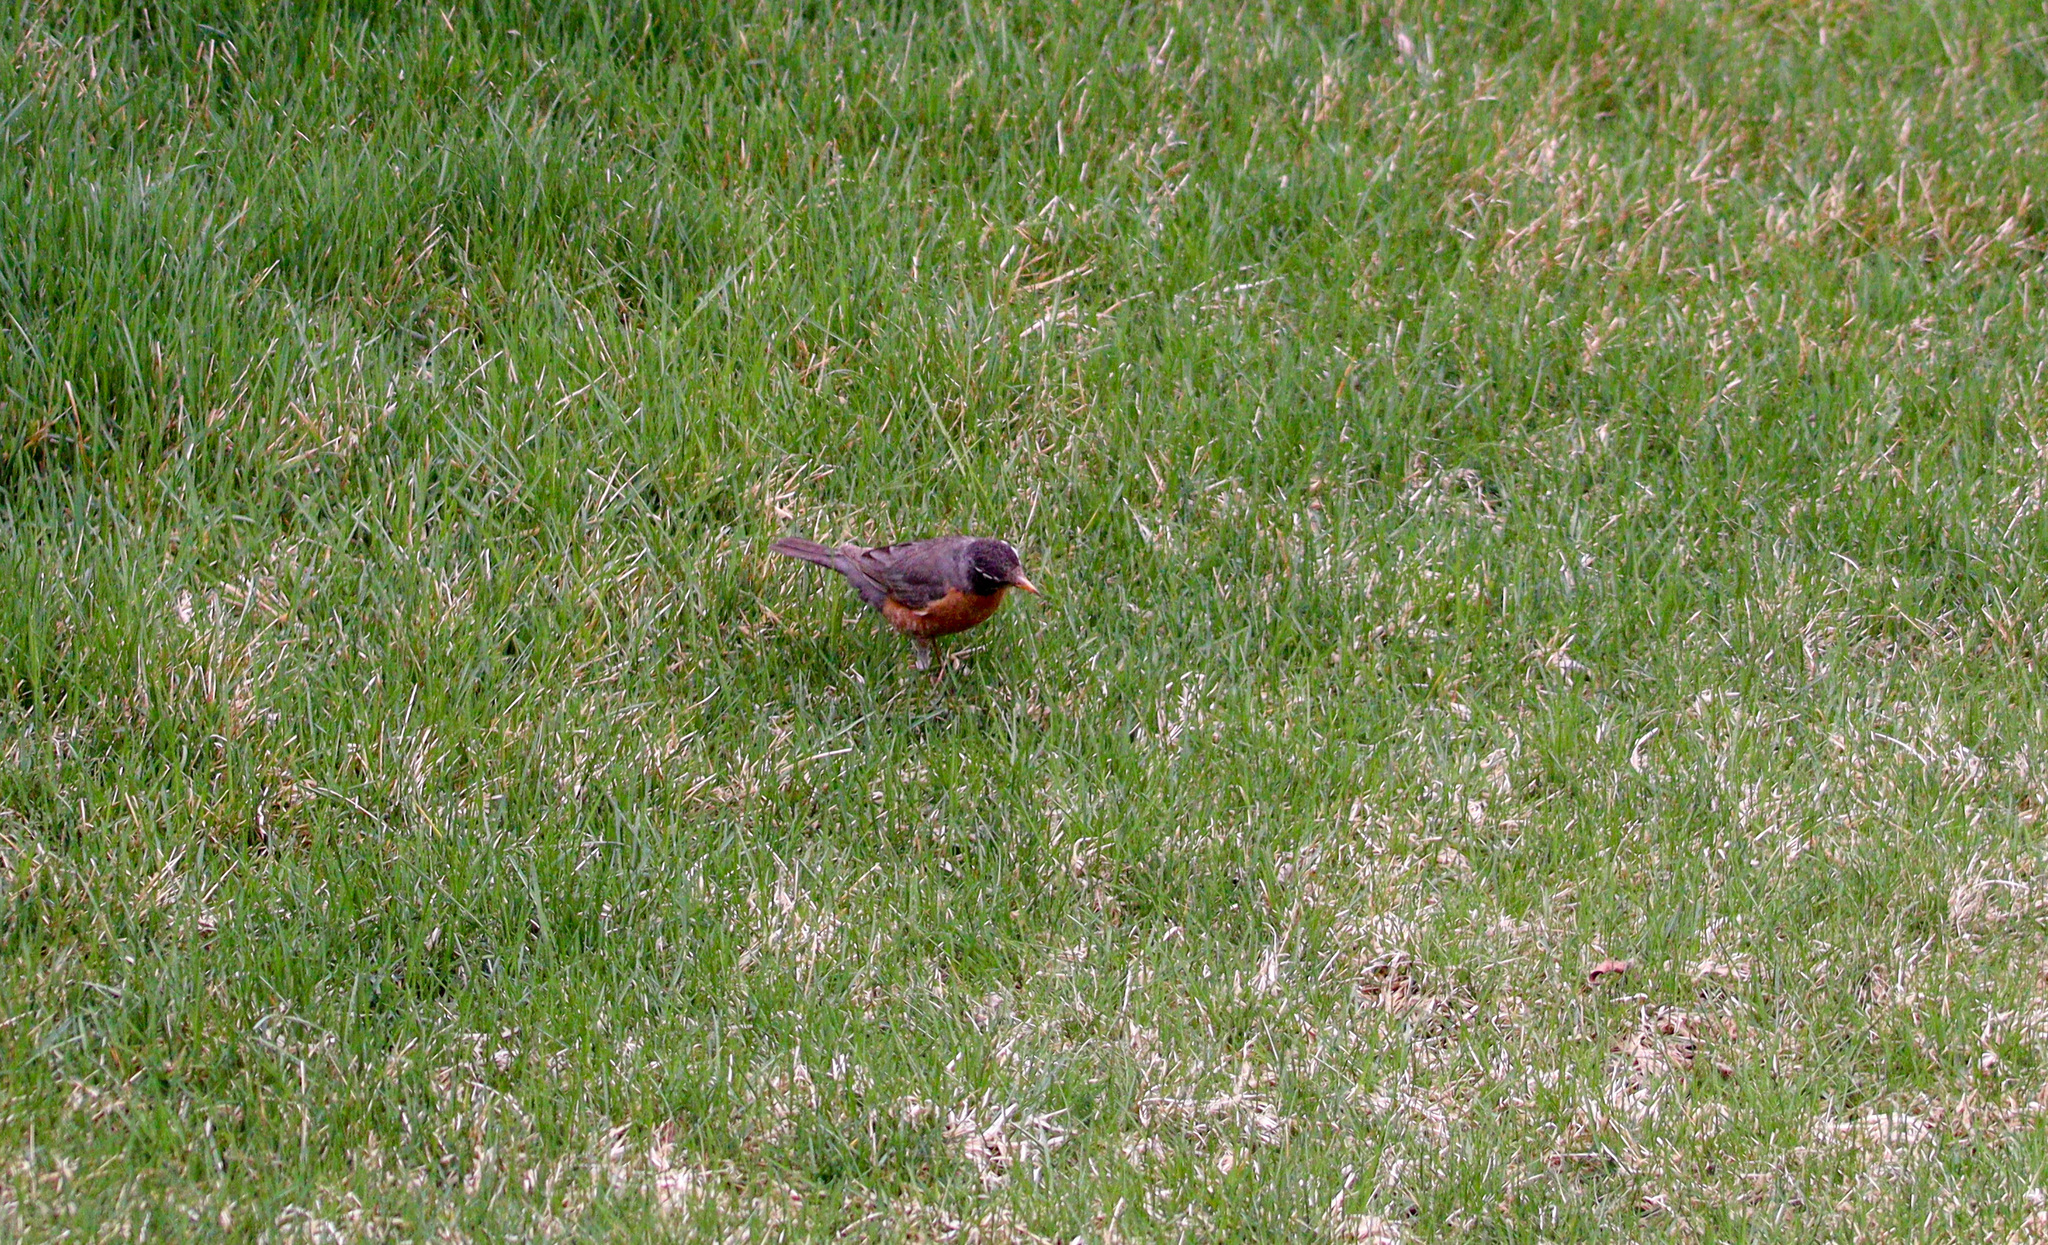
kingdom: Animalia
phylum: Chordata
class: Aves
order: Passeriformes
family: Turdidae
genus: Turdus
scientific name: Turdus migratorius
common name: American robin
